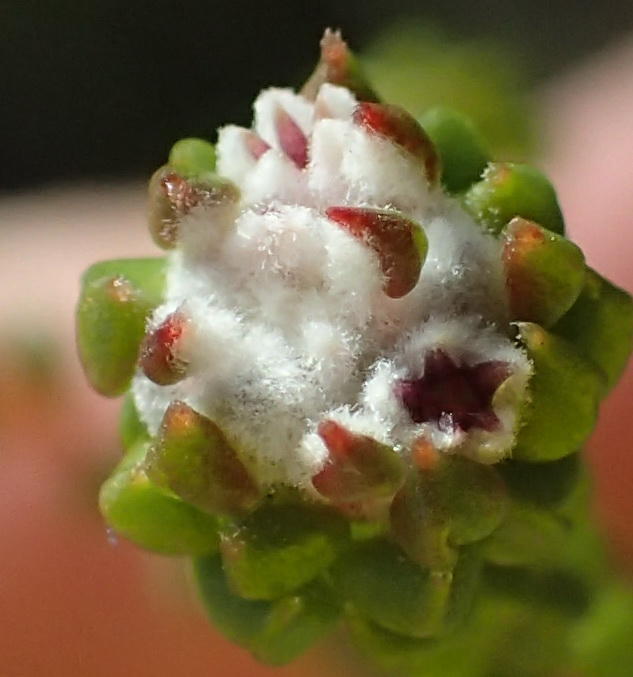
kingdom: Plantae
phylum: Tracheophyta
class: Magnoliopsida
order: Rosales
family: Rhamnaceae
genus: Phylica
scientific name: Phylica debilis
